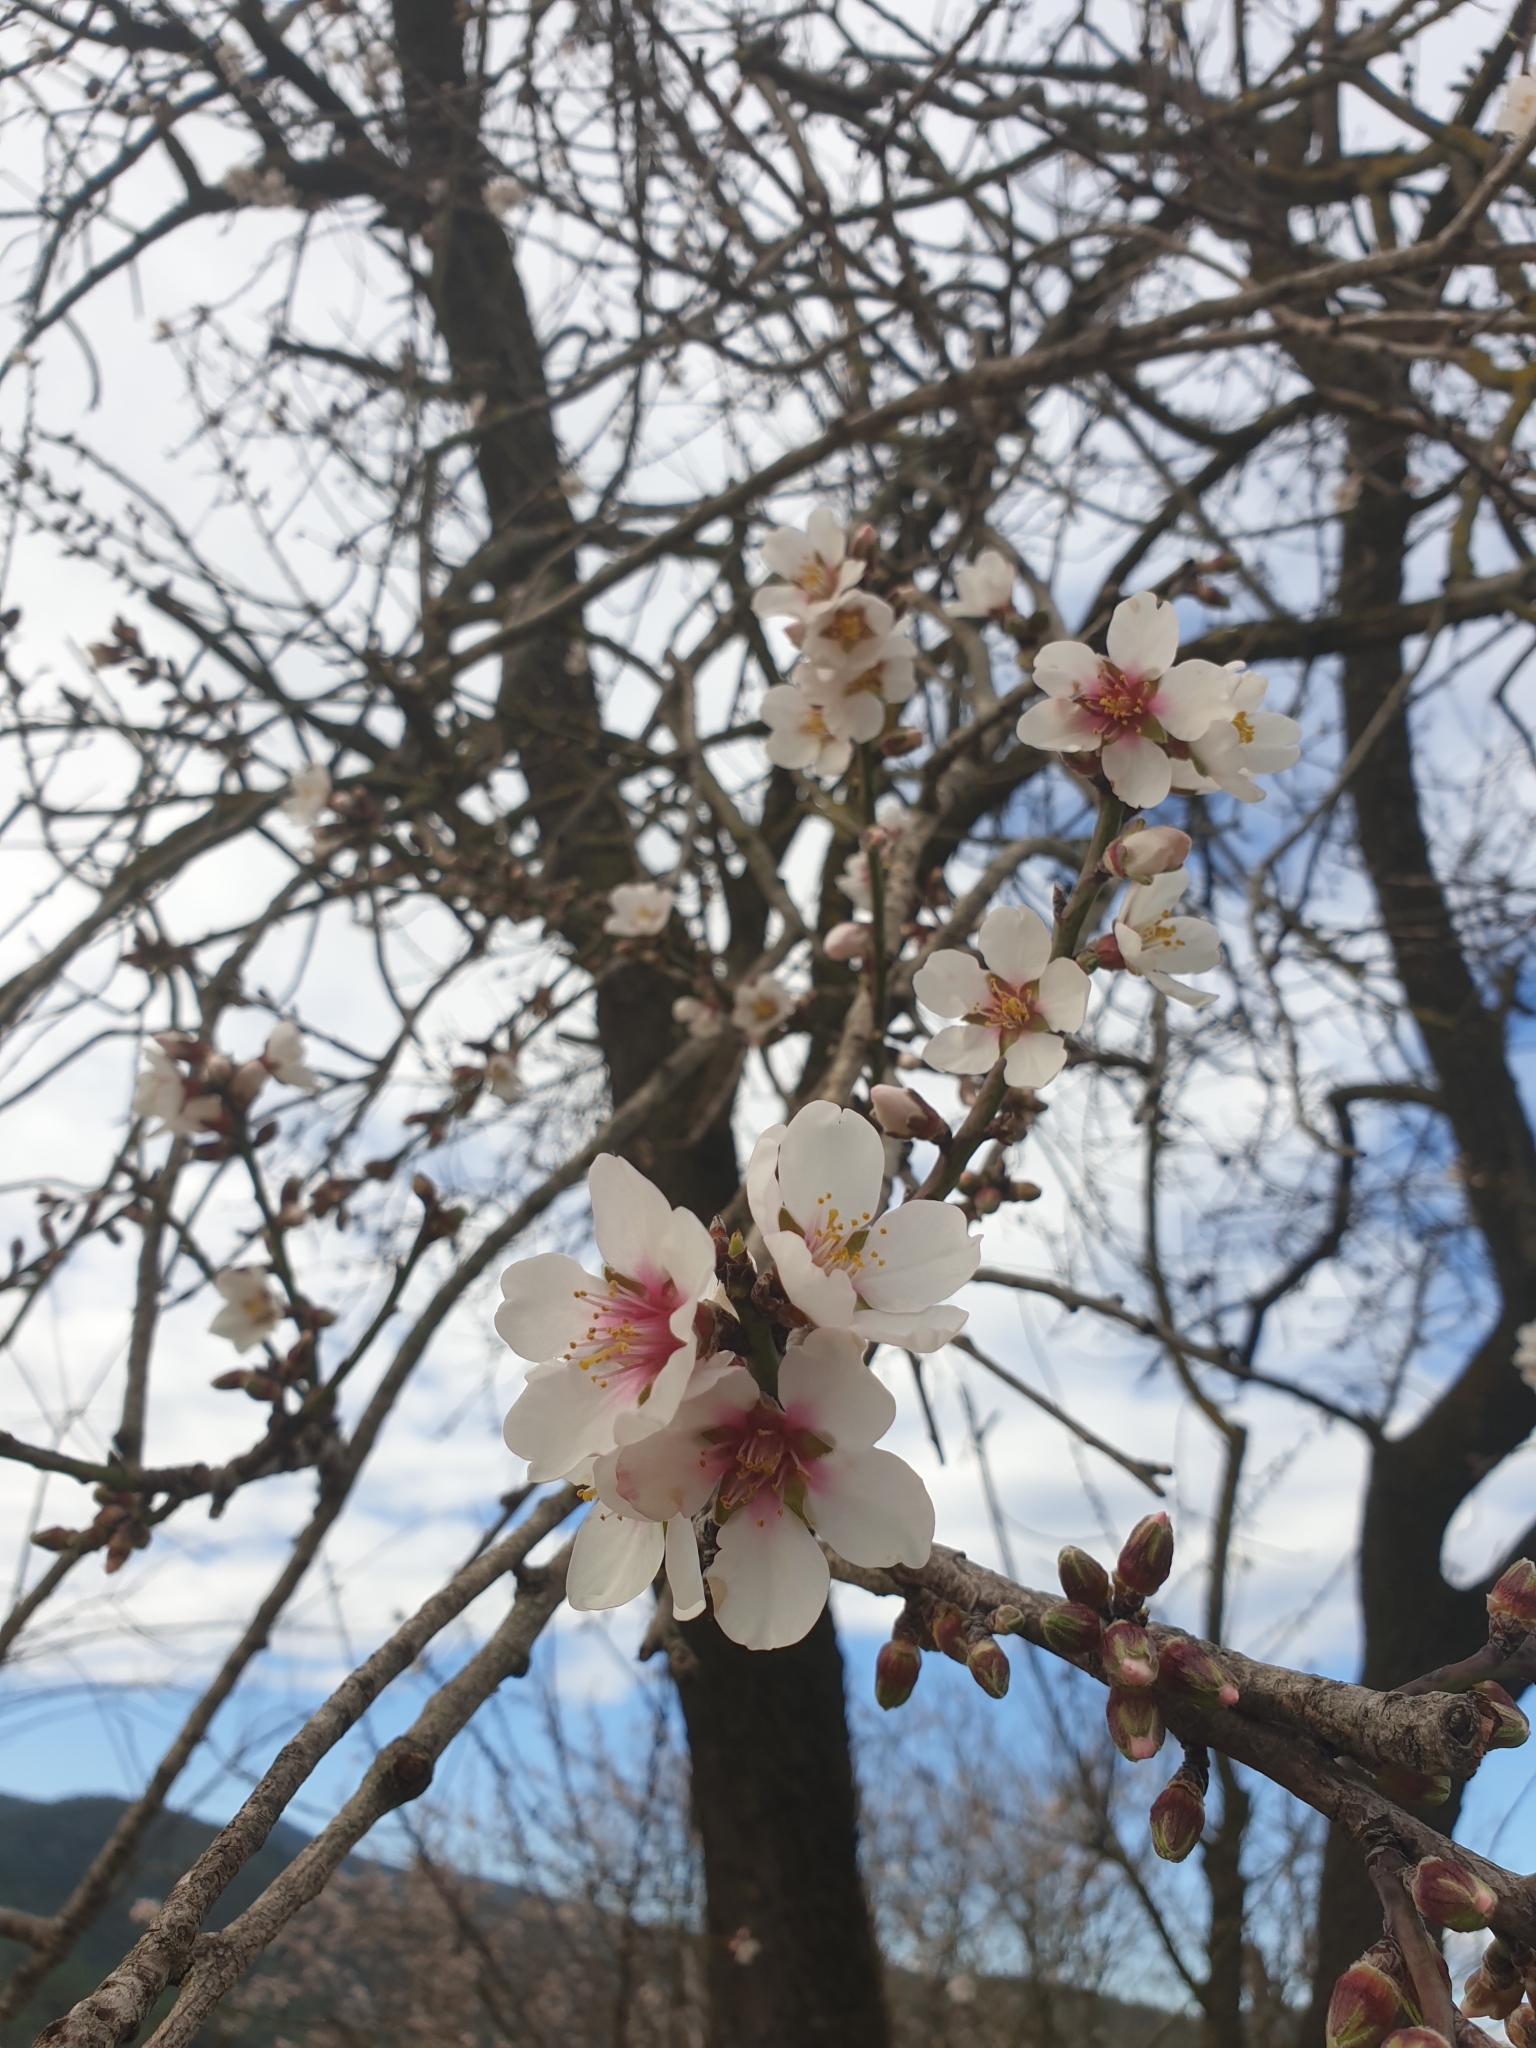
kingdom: Plantae
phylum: Tracheophyta
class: Magnoliopsida
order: Rosales
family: Rosaceae
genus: Prunus
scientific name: Prunus amygdalus
